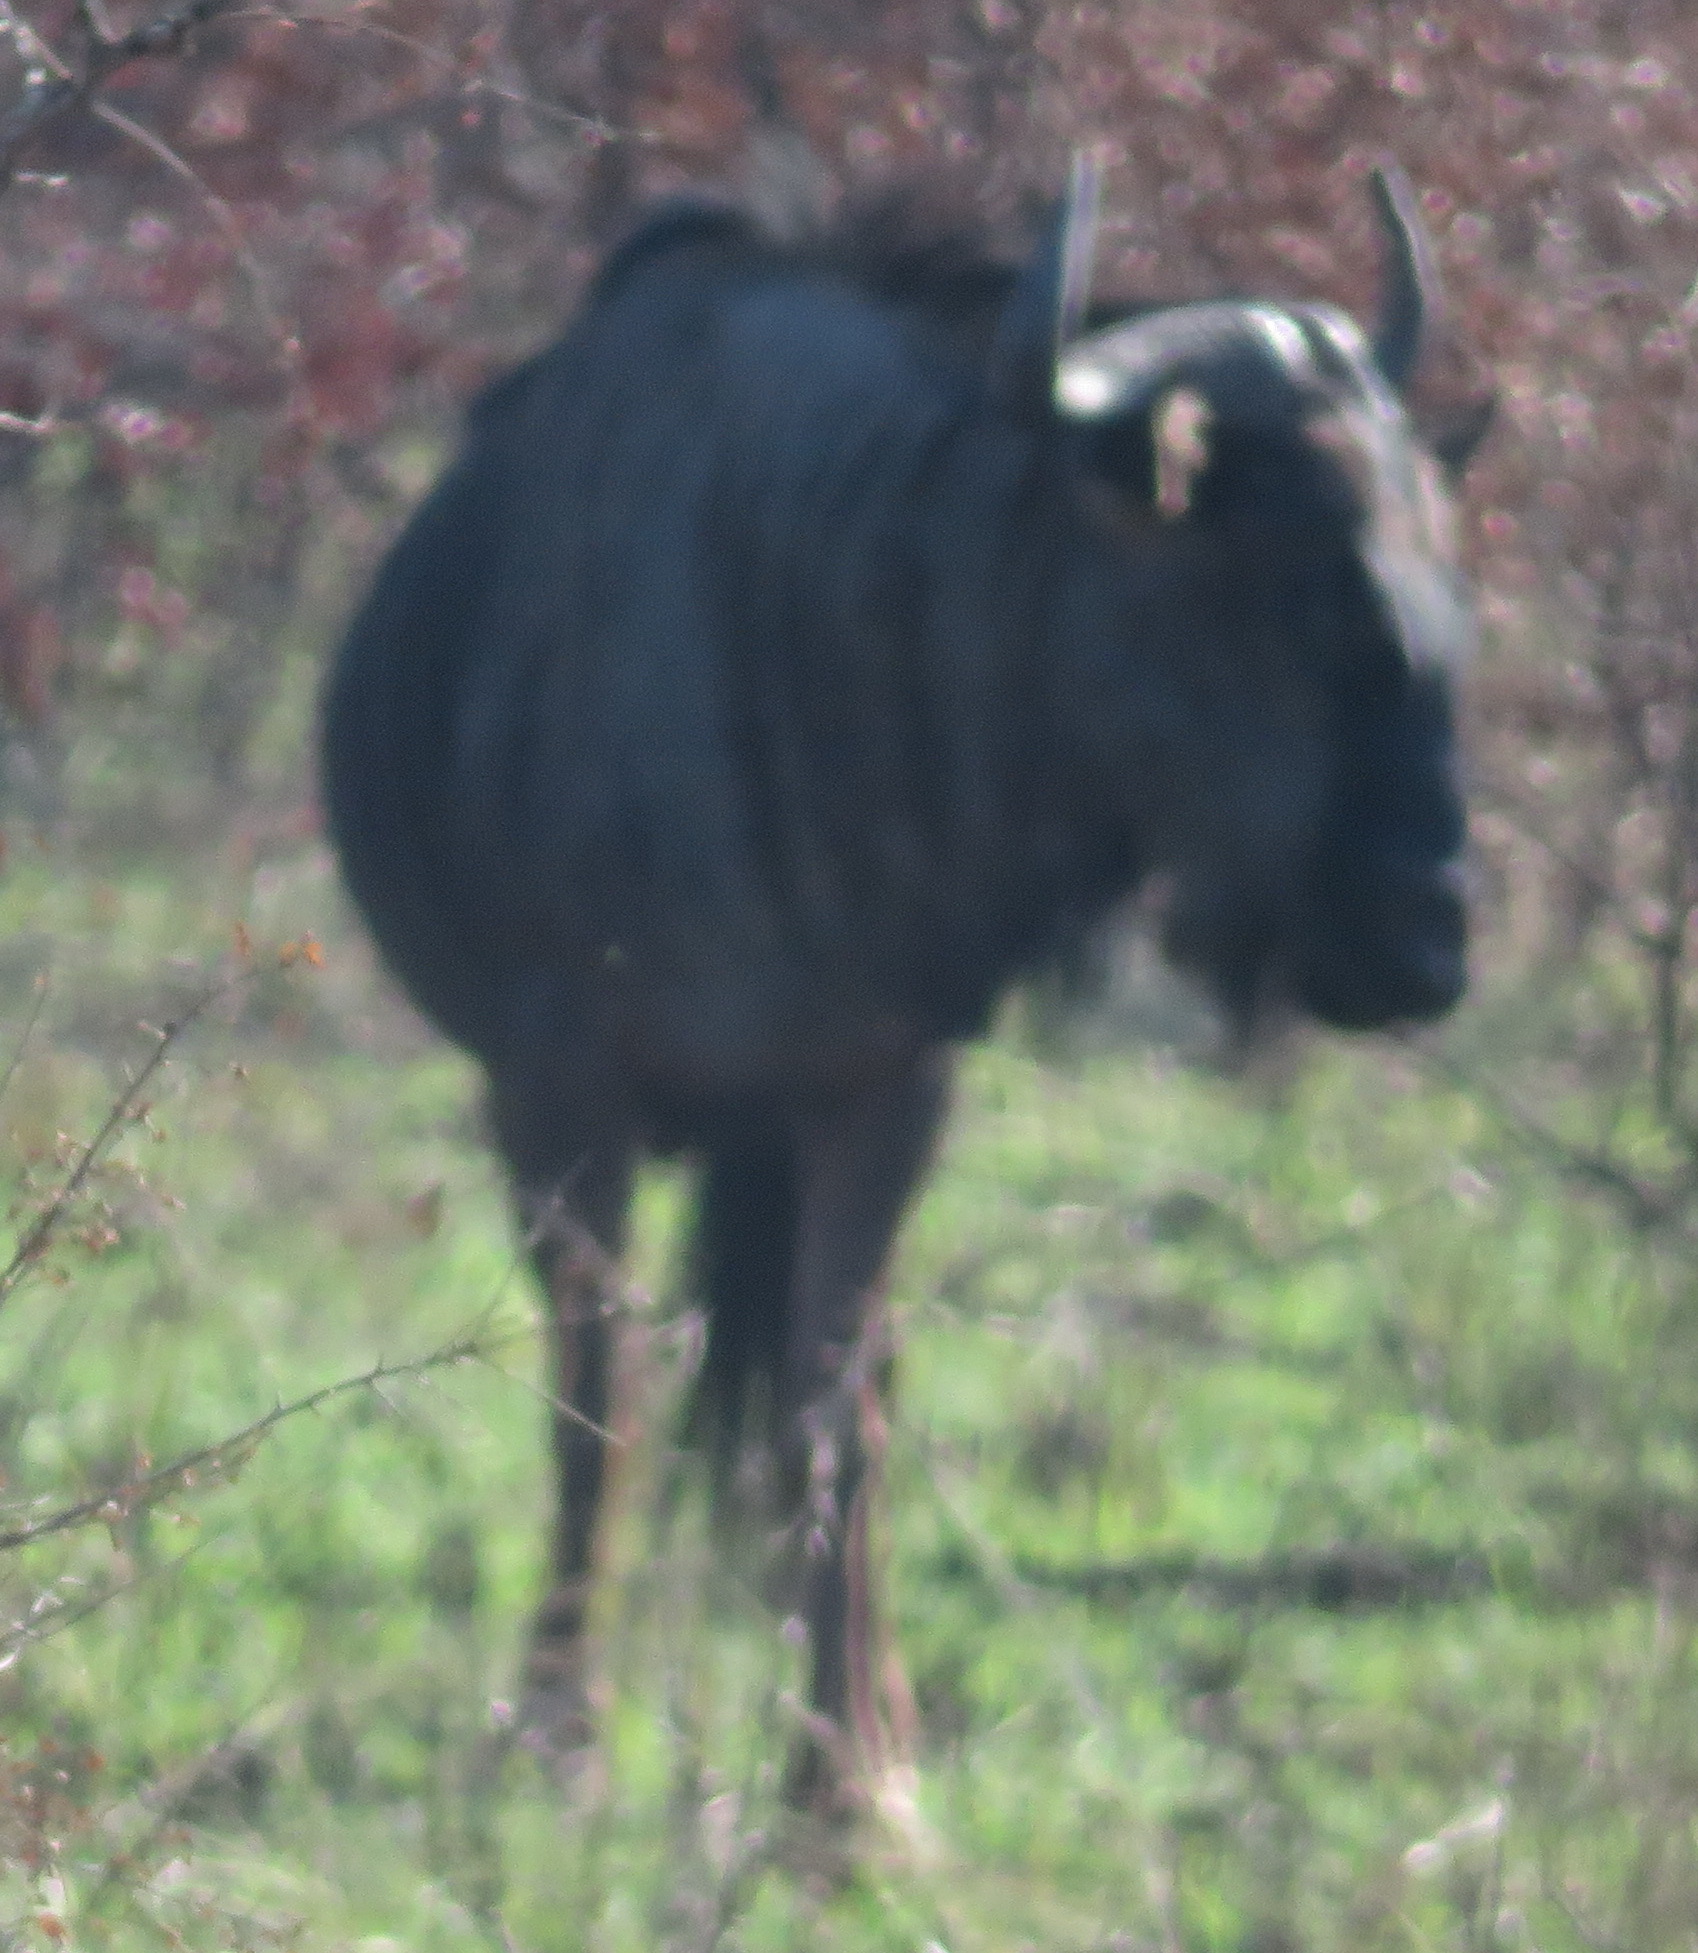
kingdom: Animalia
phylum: Chordata
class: Mammalia
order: Artiodactyla
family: Bovidae
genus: Connochaetes
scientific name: Connochaetes taurinus
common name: Blue wildebeest
